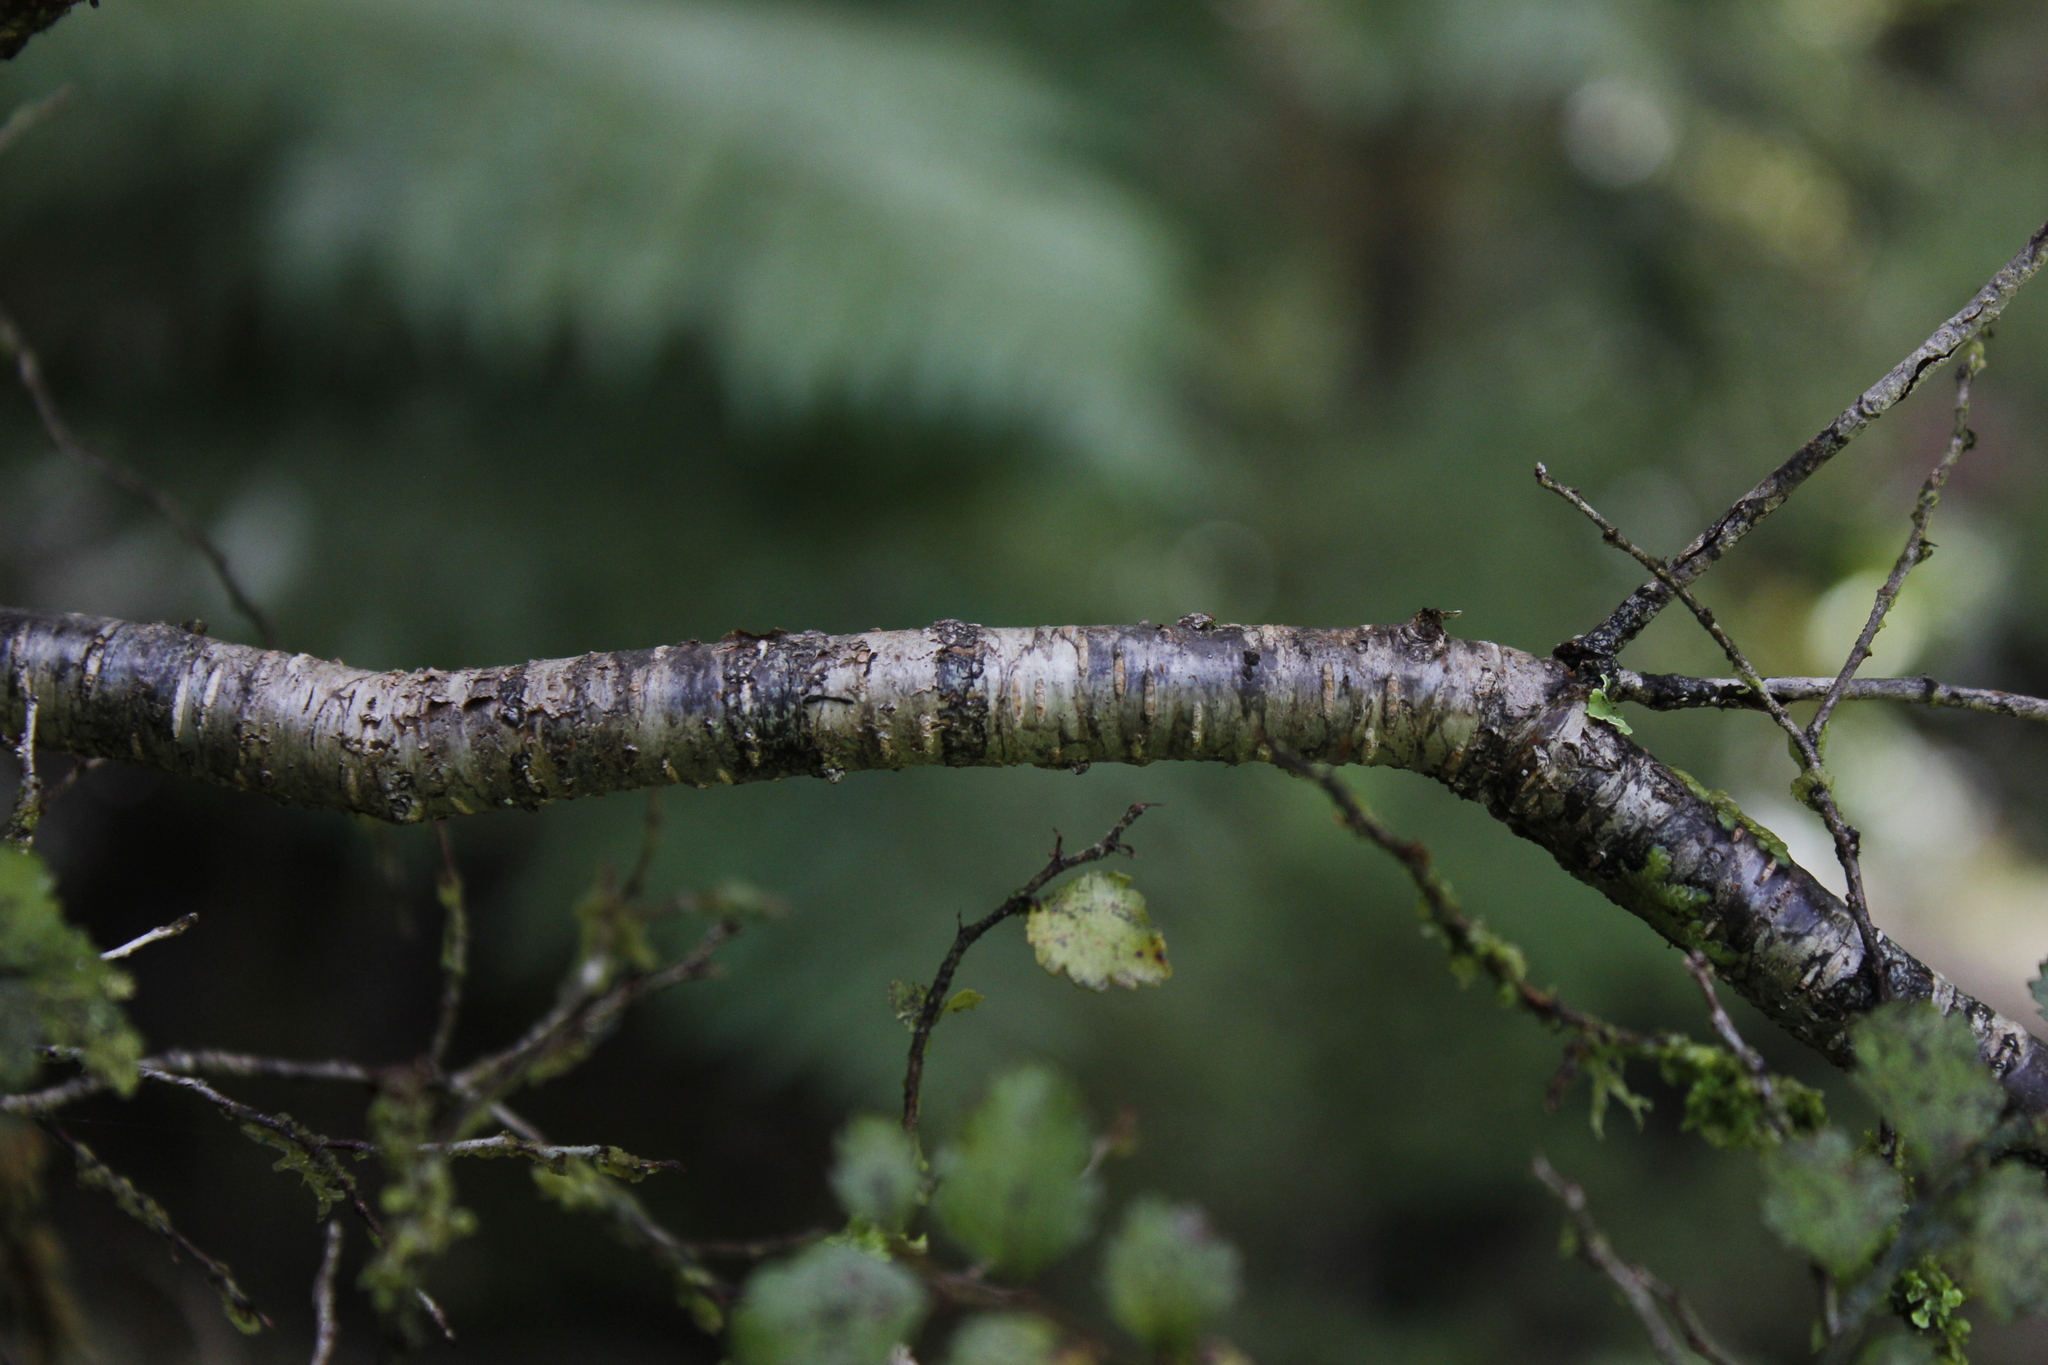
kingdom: Plantae
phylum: Tracheophyta
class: Magnoliopsida
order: Fagales
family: Nothofagaceae
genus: Nothofagus
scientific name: Nothofagus menziesii
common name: Silver beech
